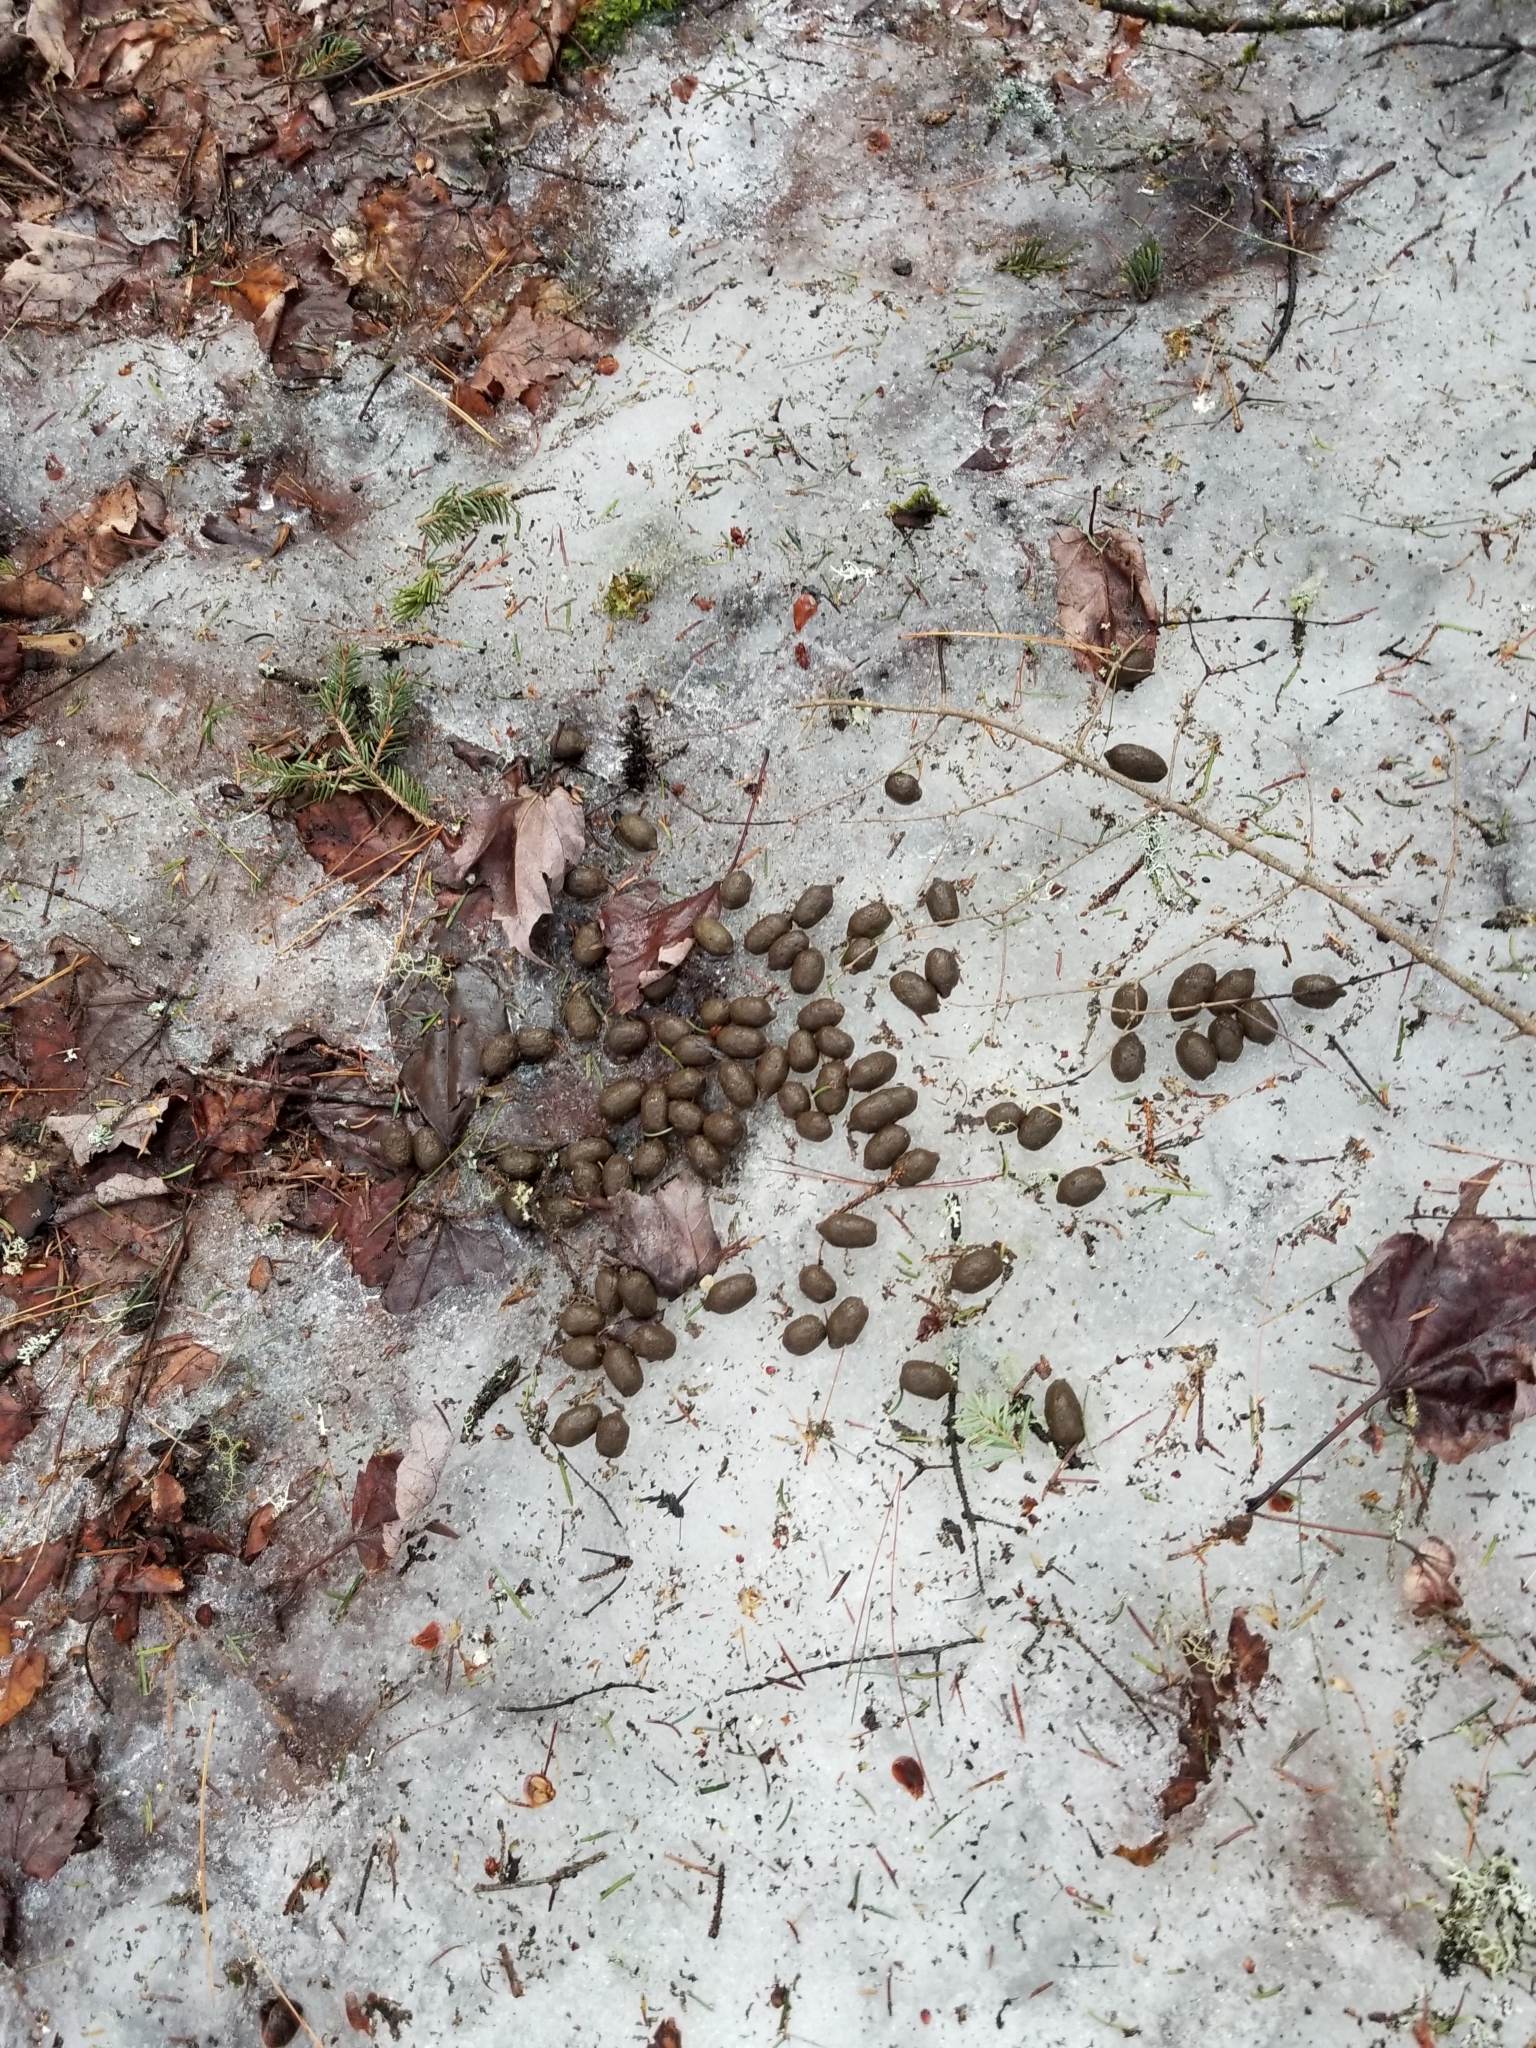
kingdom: Animalia
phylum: Chordata
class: Mammalia
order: Artiodactyla
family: Cervidae
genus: Odocoileus
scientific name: Odocoileus virginianus
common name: White-tailed deer
